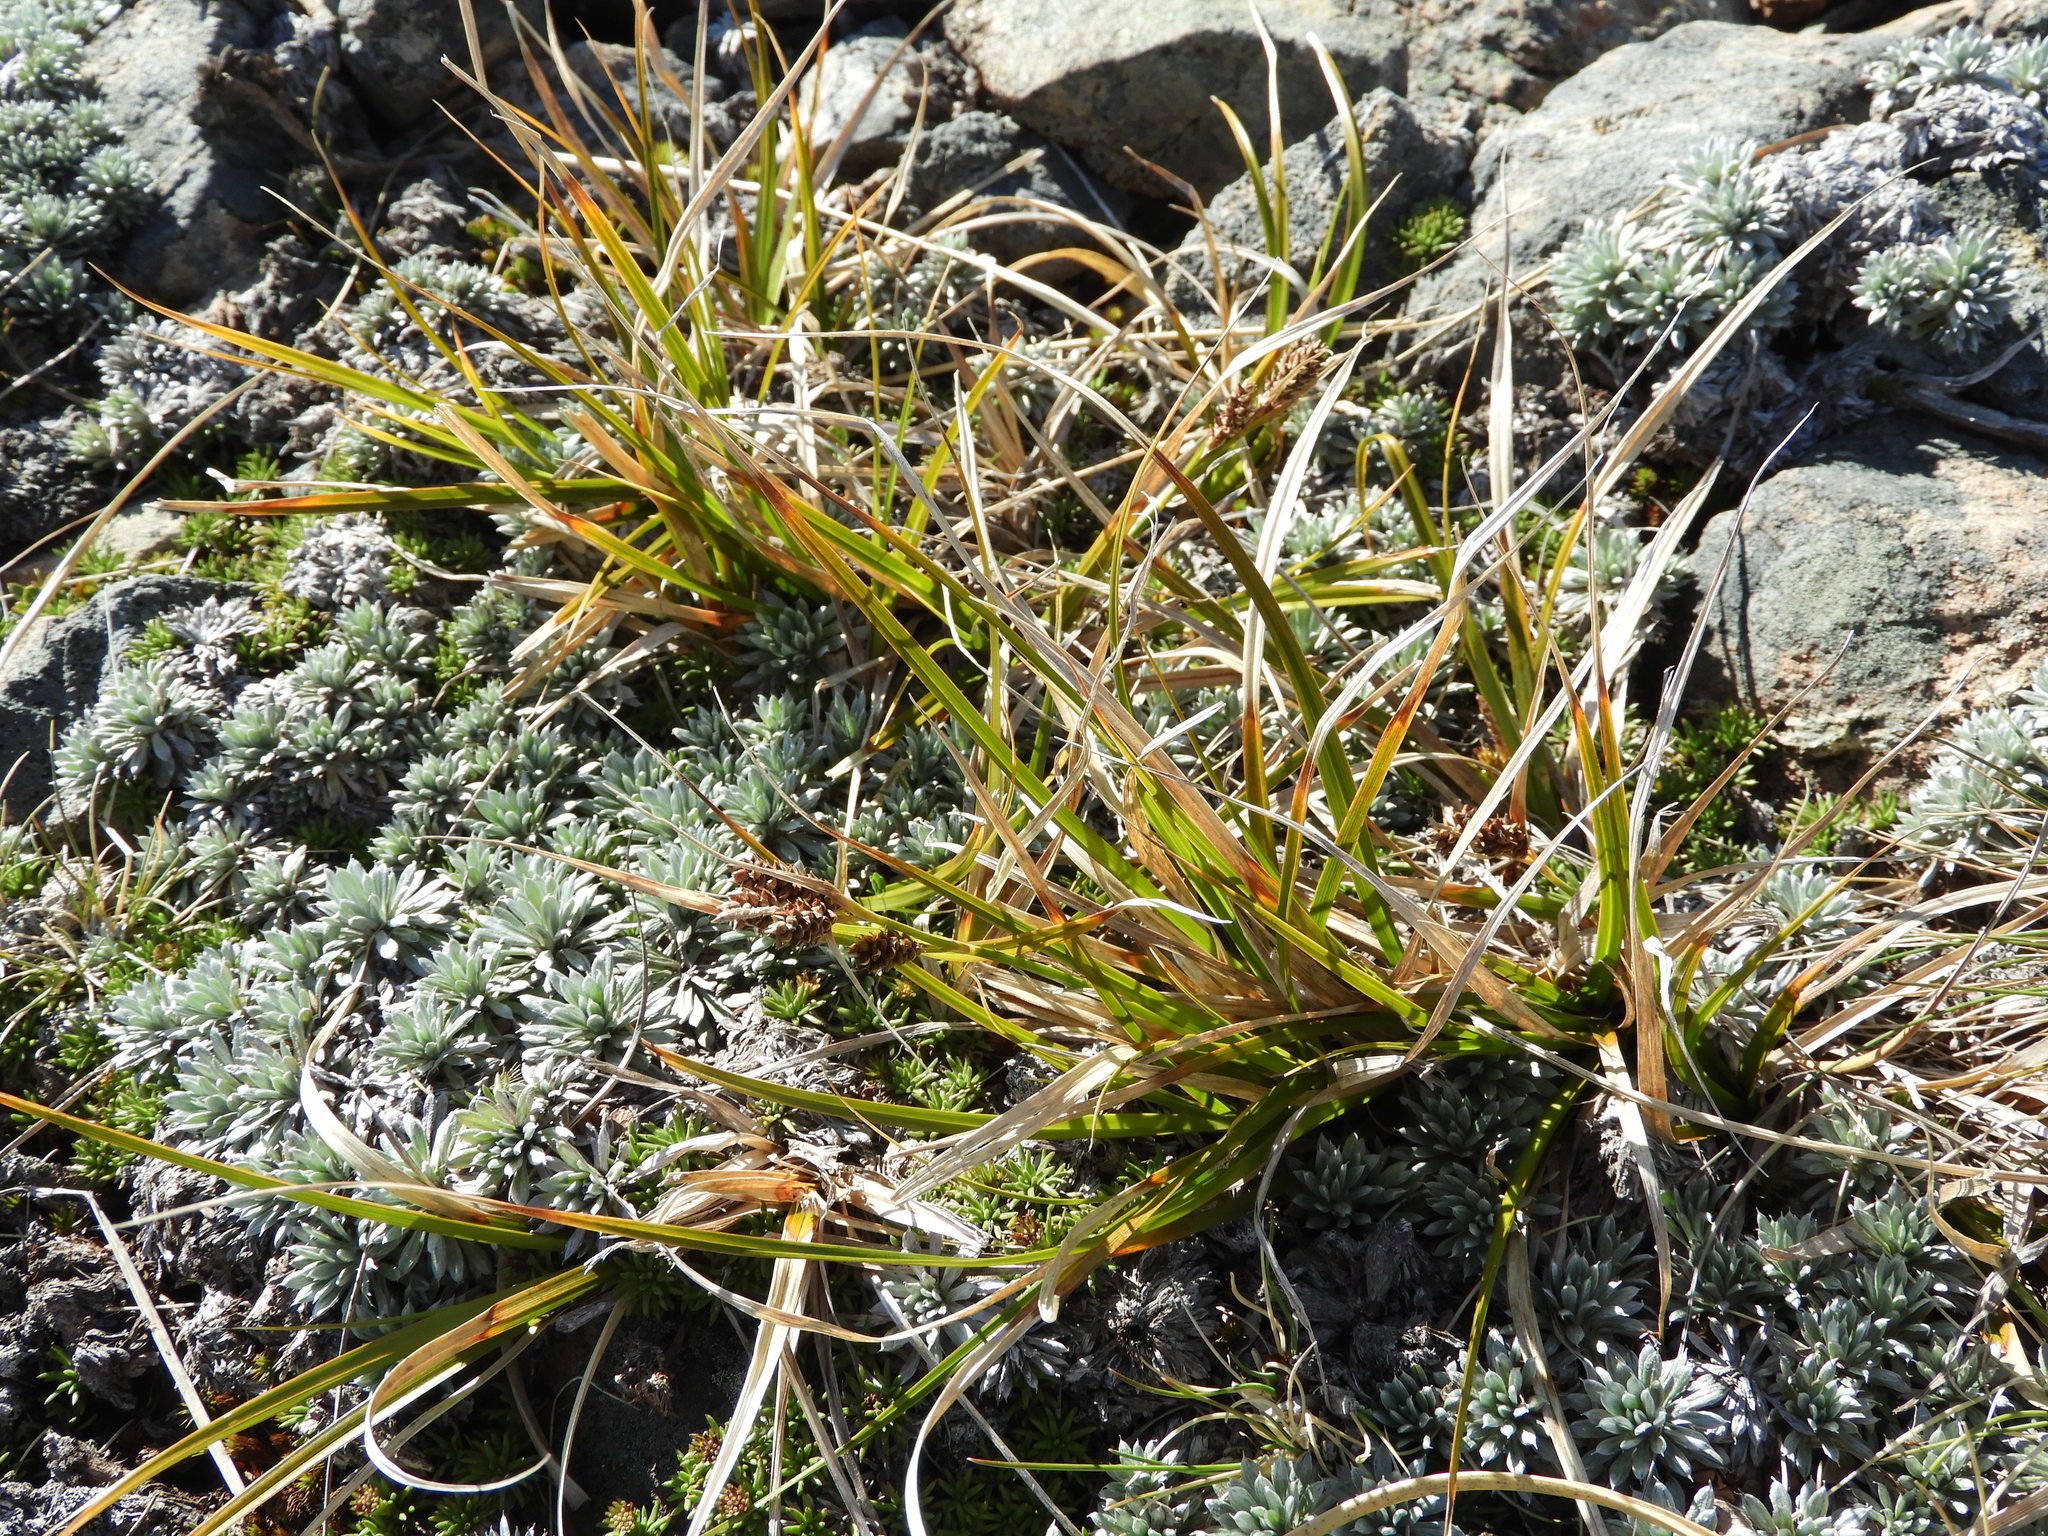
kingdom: Plantae
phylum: Tracheophyta
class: Liliopsida
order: Poales
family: Cyperaceae
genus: Carex
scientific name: Carex wakatipu
